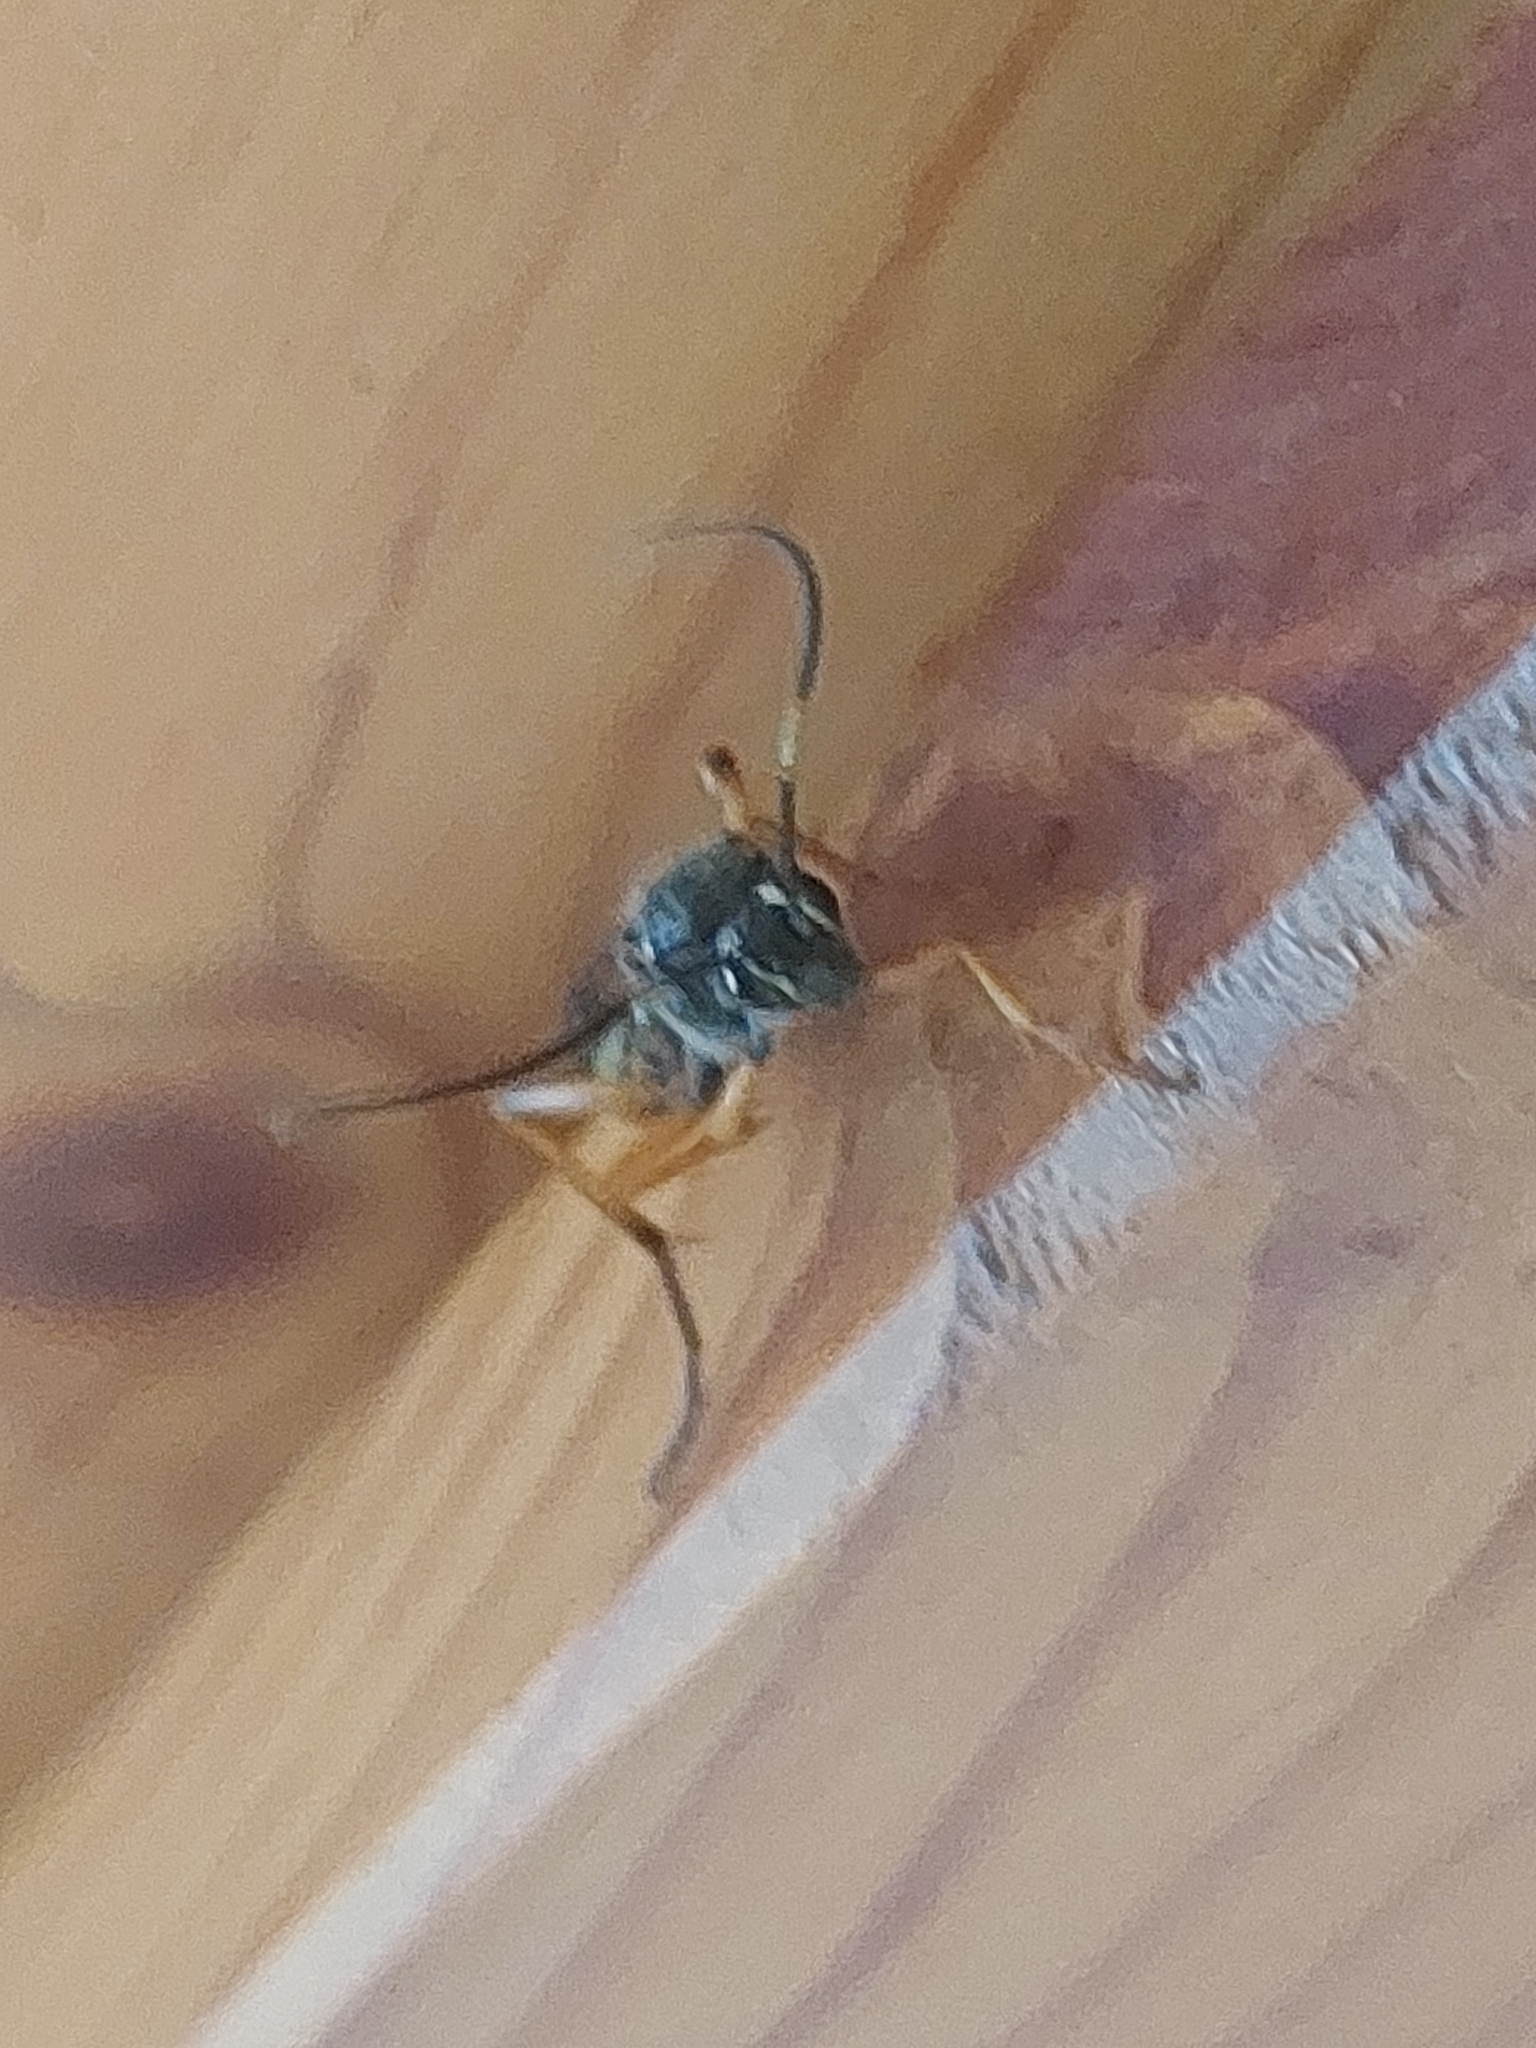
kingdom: Animalia
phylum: Arthropoda
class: Insecta
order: Hymenoptera
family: Ichneumonidae
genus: Diphyus
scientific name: Diphyus quadripunctorius
